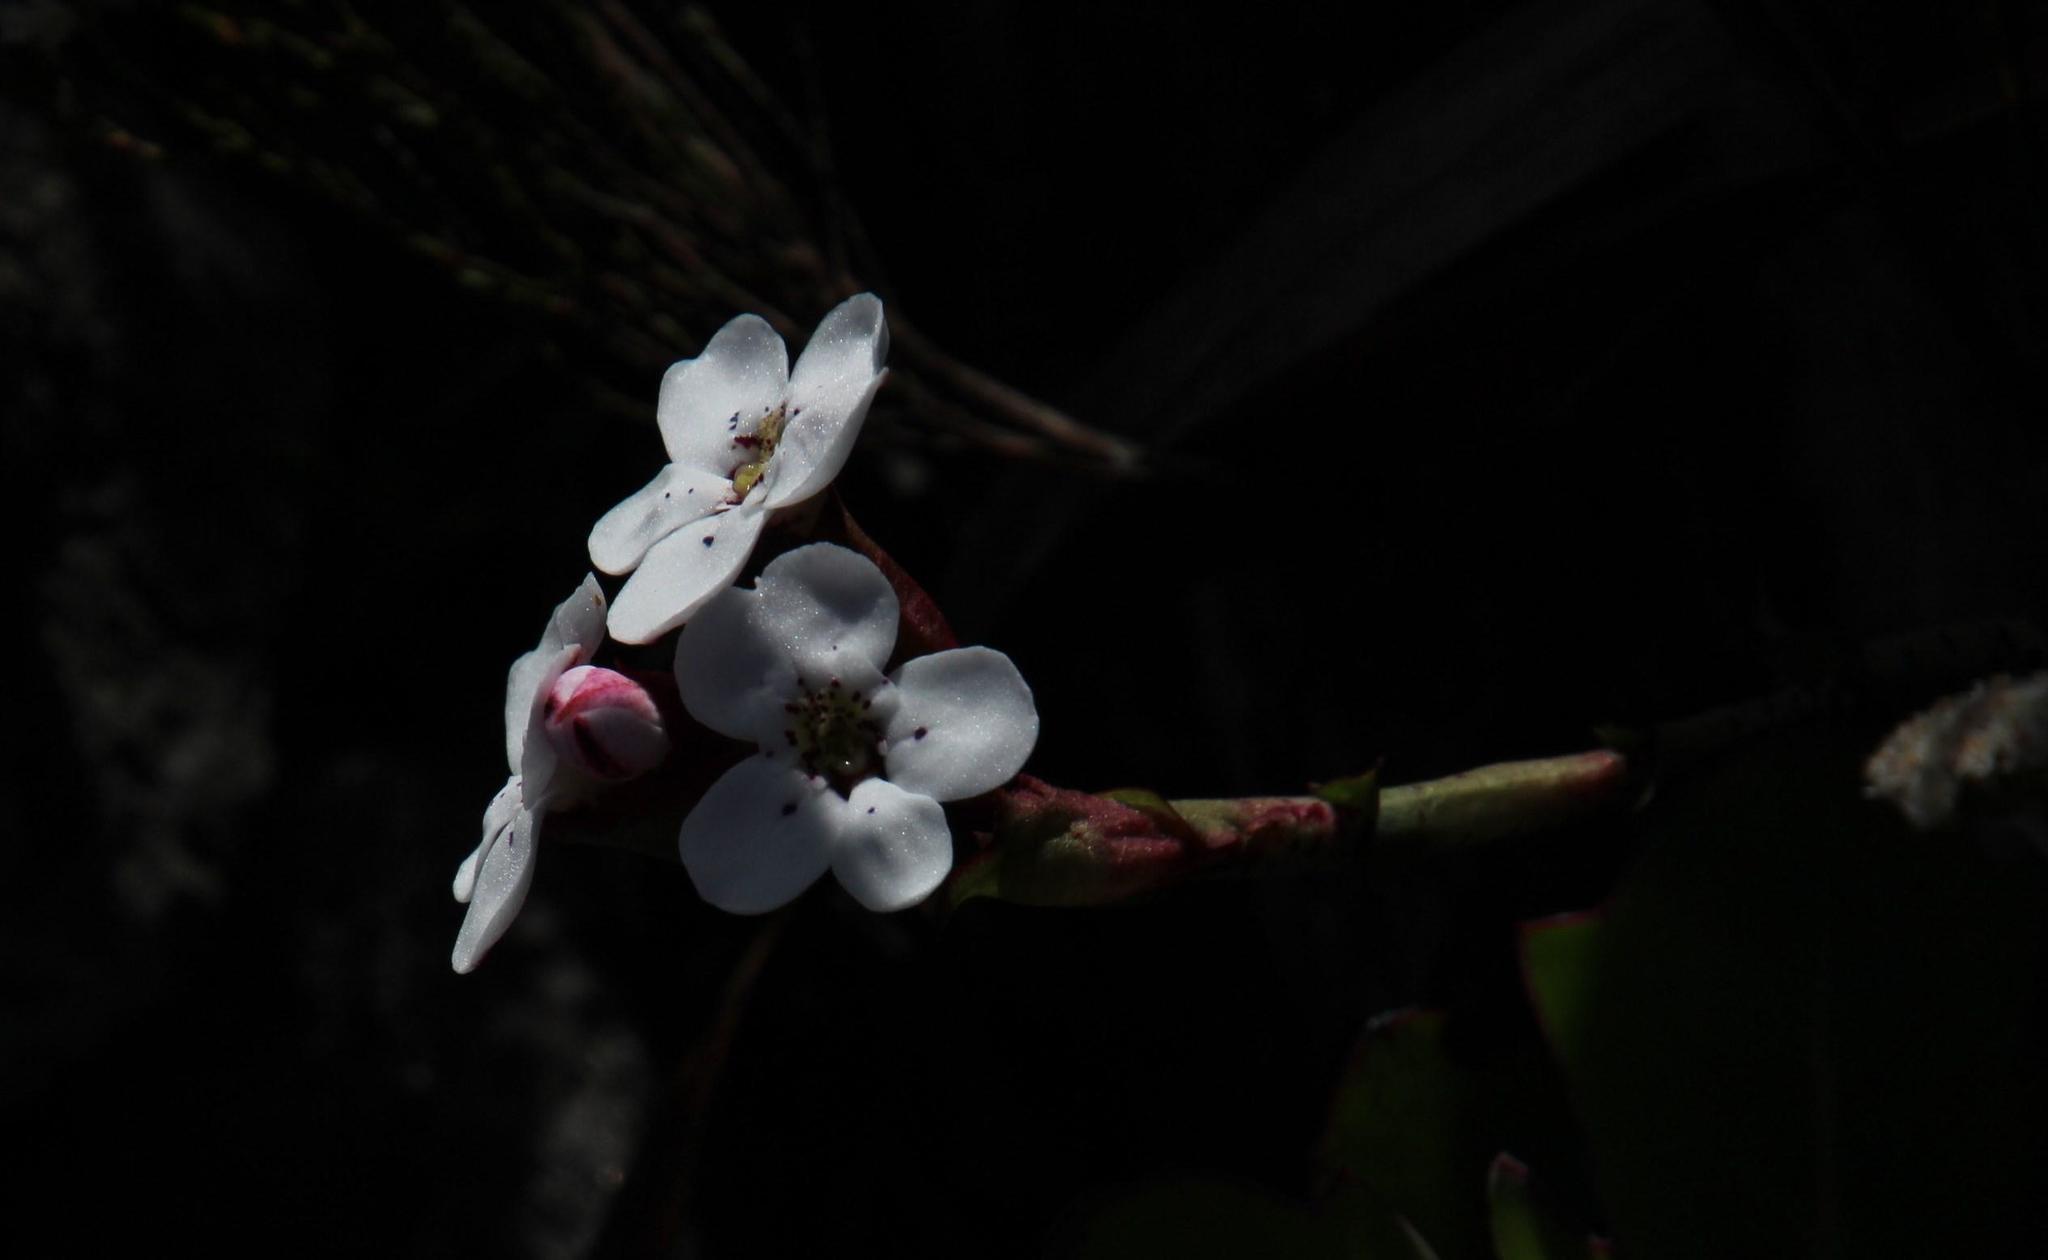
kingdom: Plantae
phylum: Tracheophyta
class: Liliopsida
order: Asparagales
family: Orchidaceae
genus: Disa
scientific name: Disa fasciata
